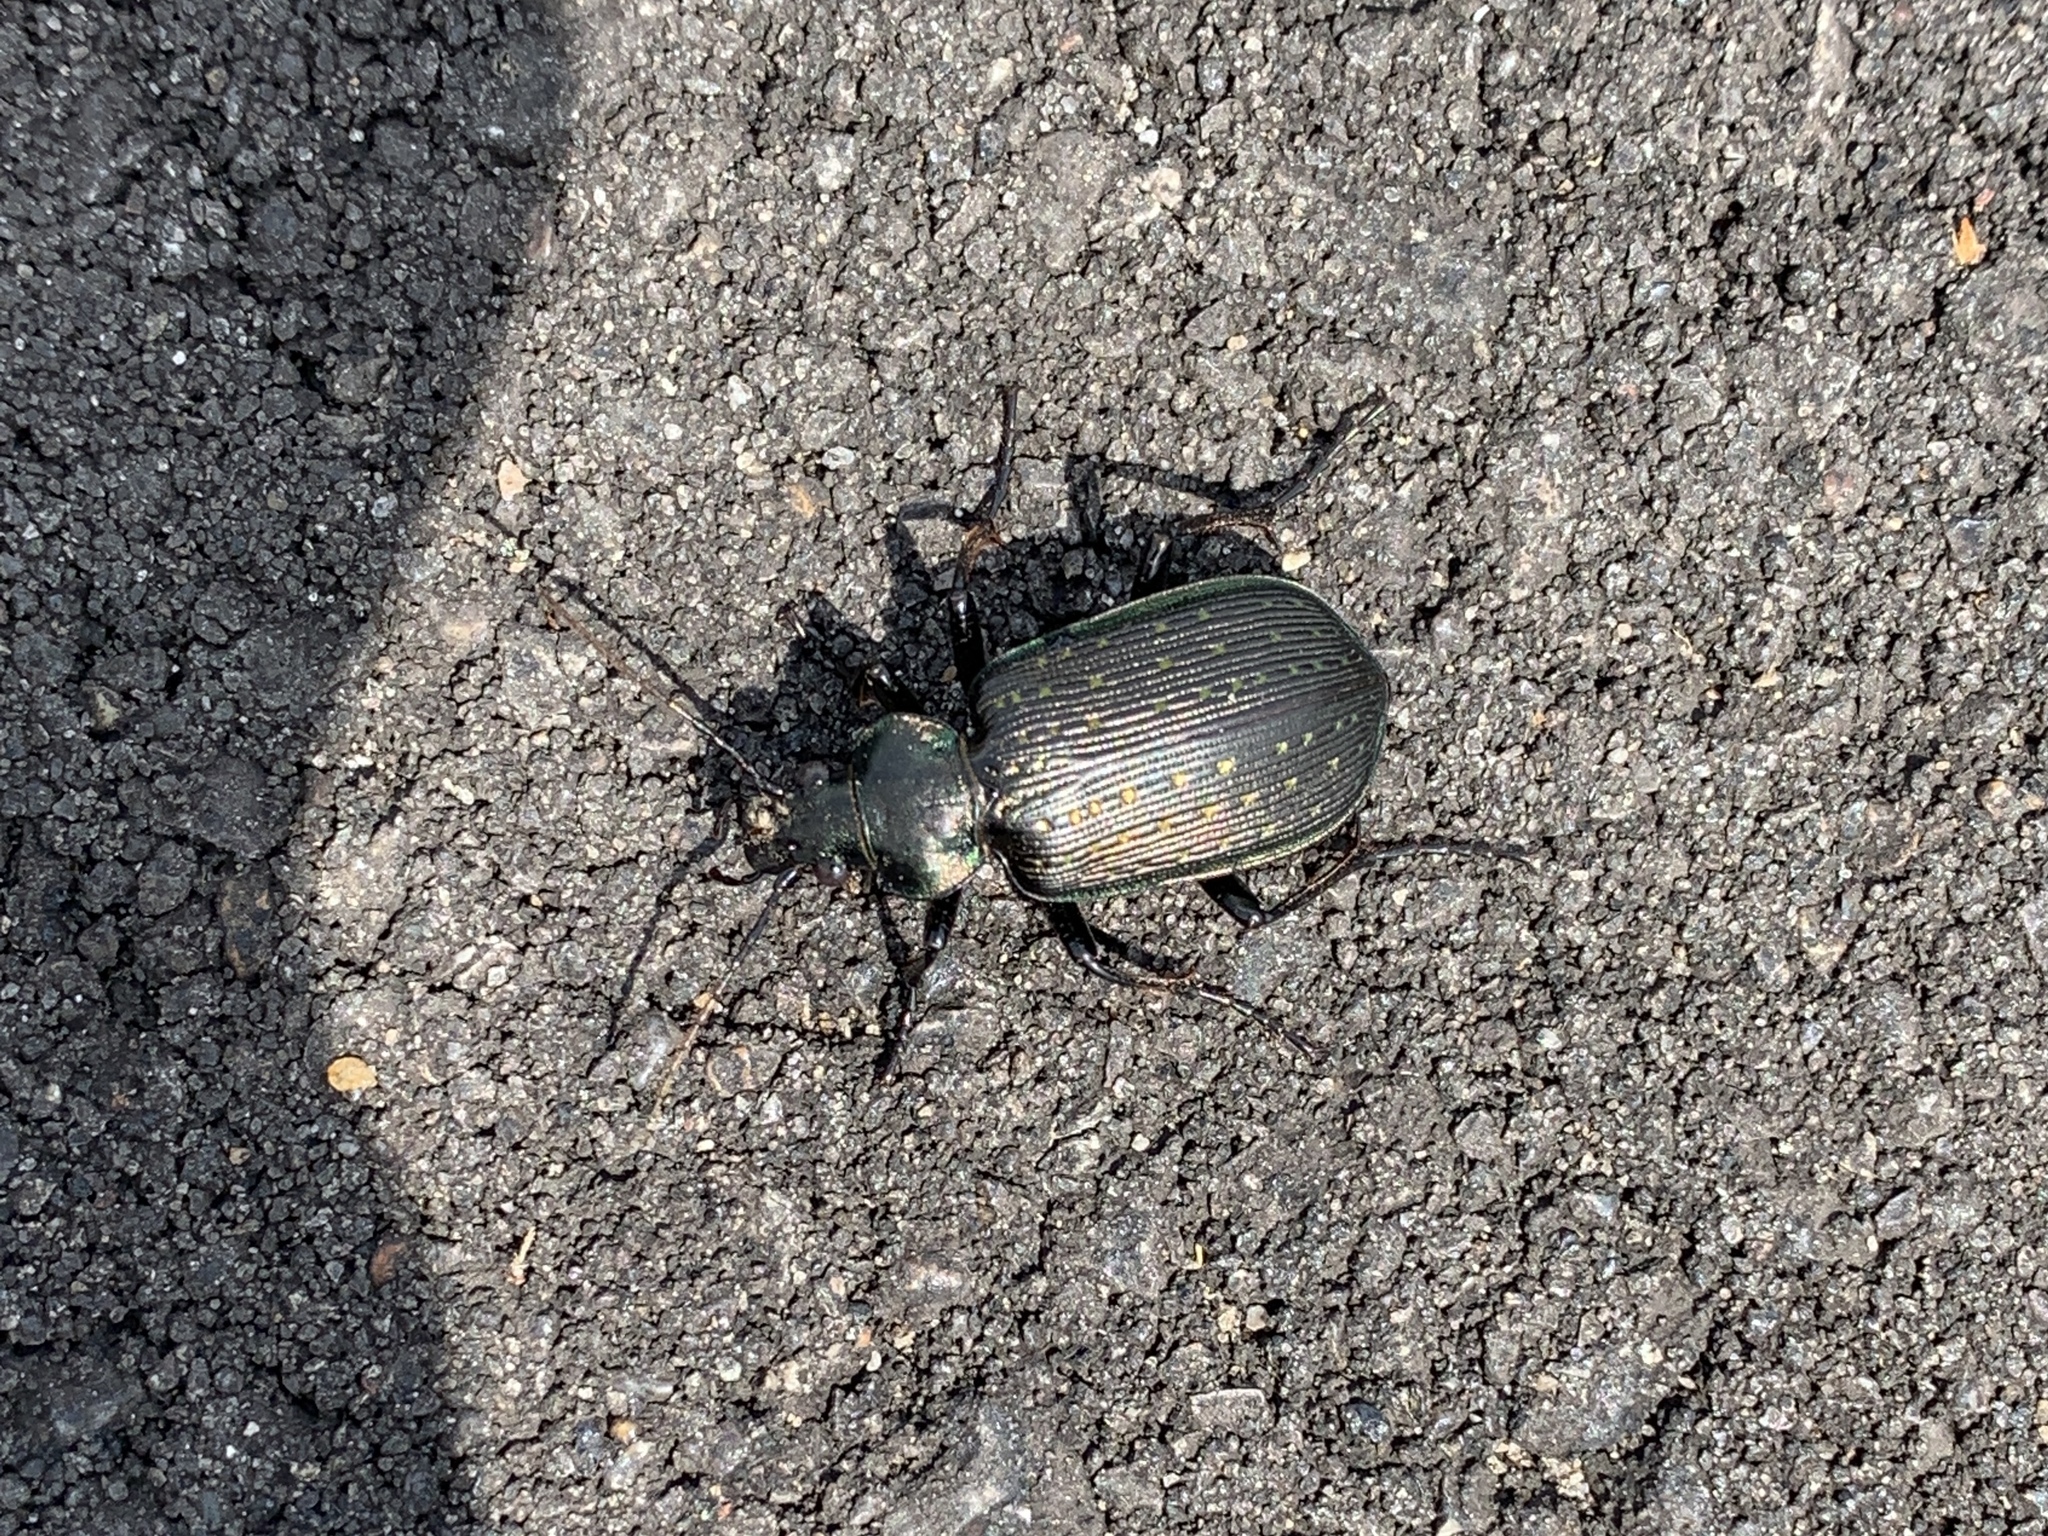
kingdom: Animalia
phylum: Arthropoda
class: Insecta
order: Coleoptera
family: Carabidae
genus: Calosoma
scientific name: Calosoma sayi
